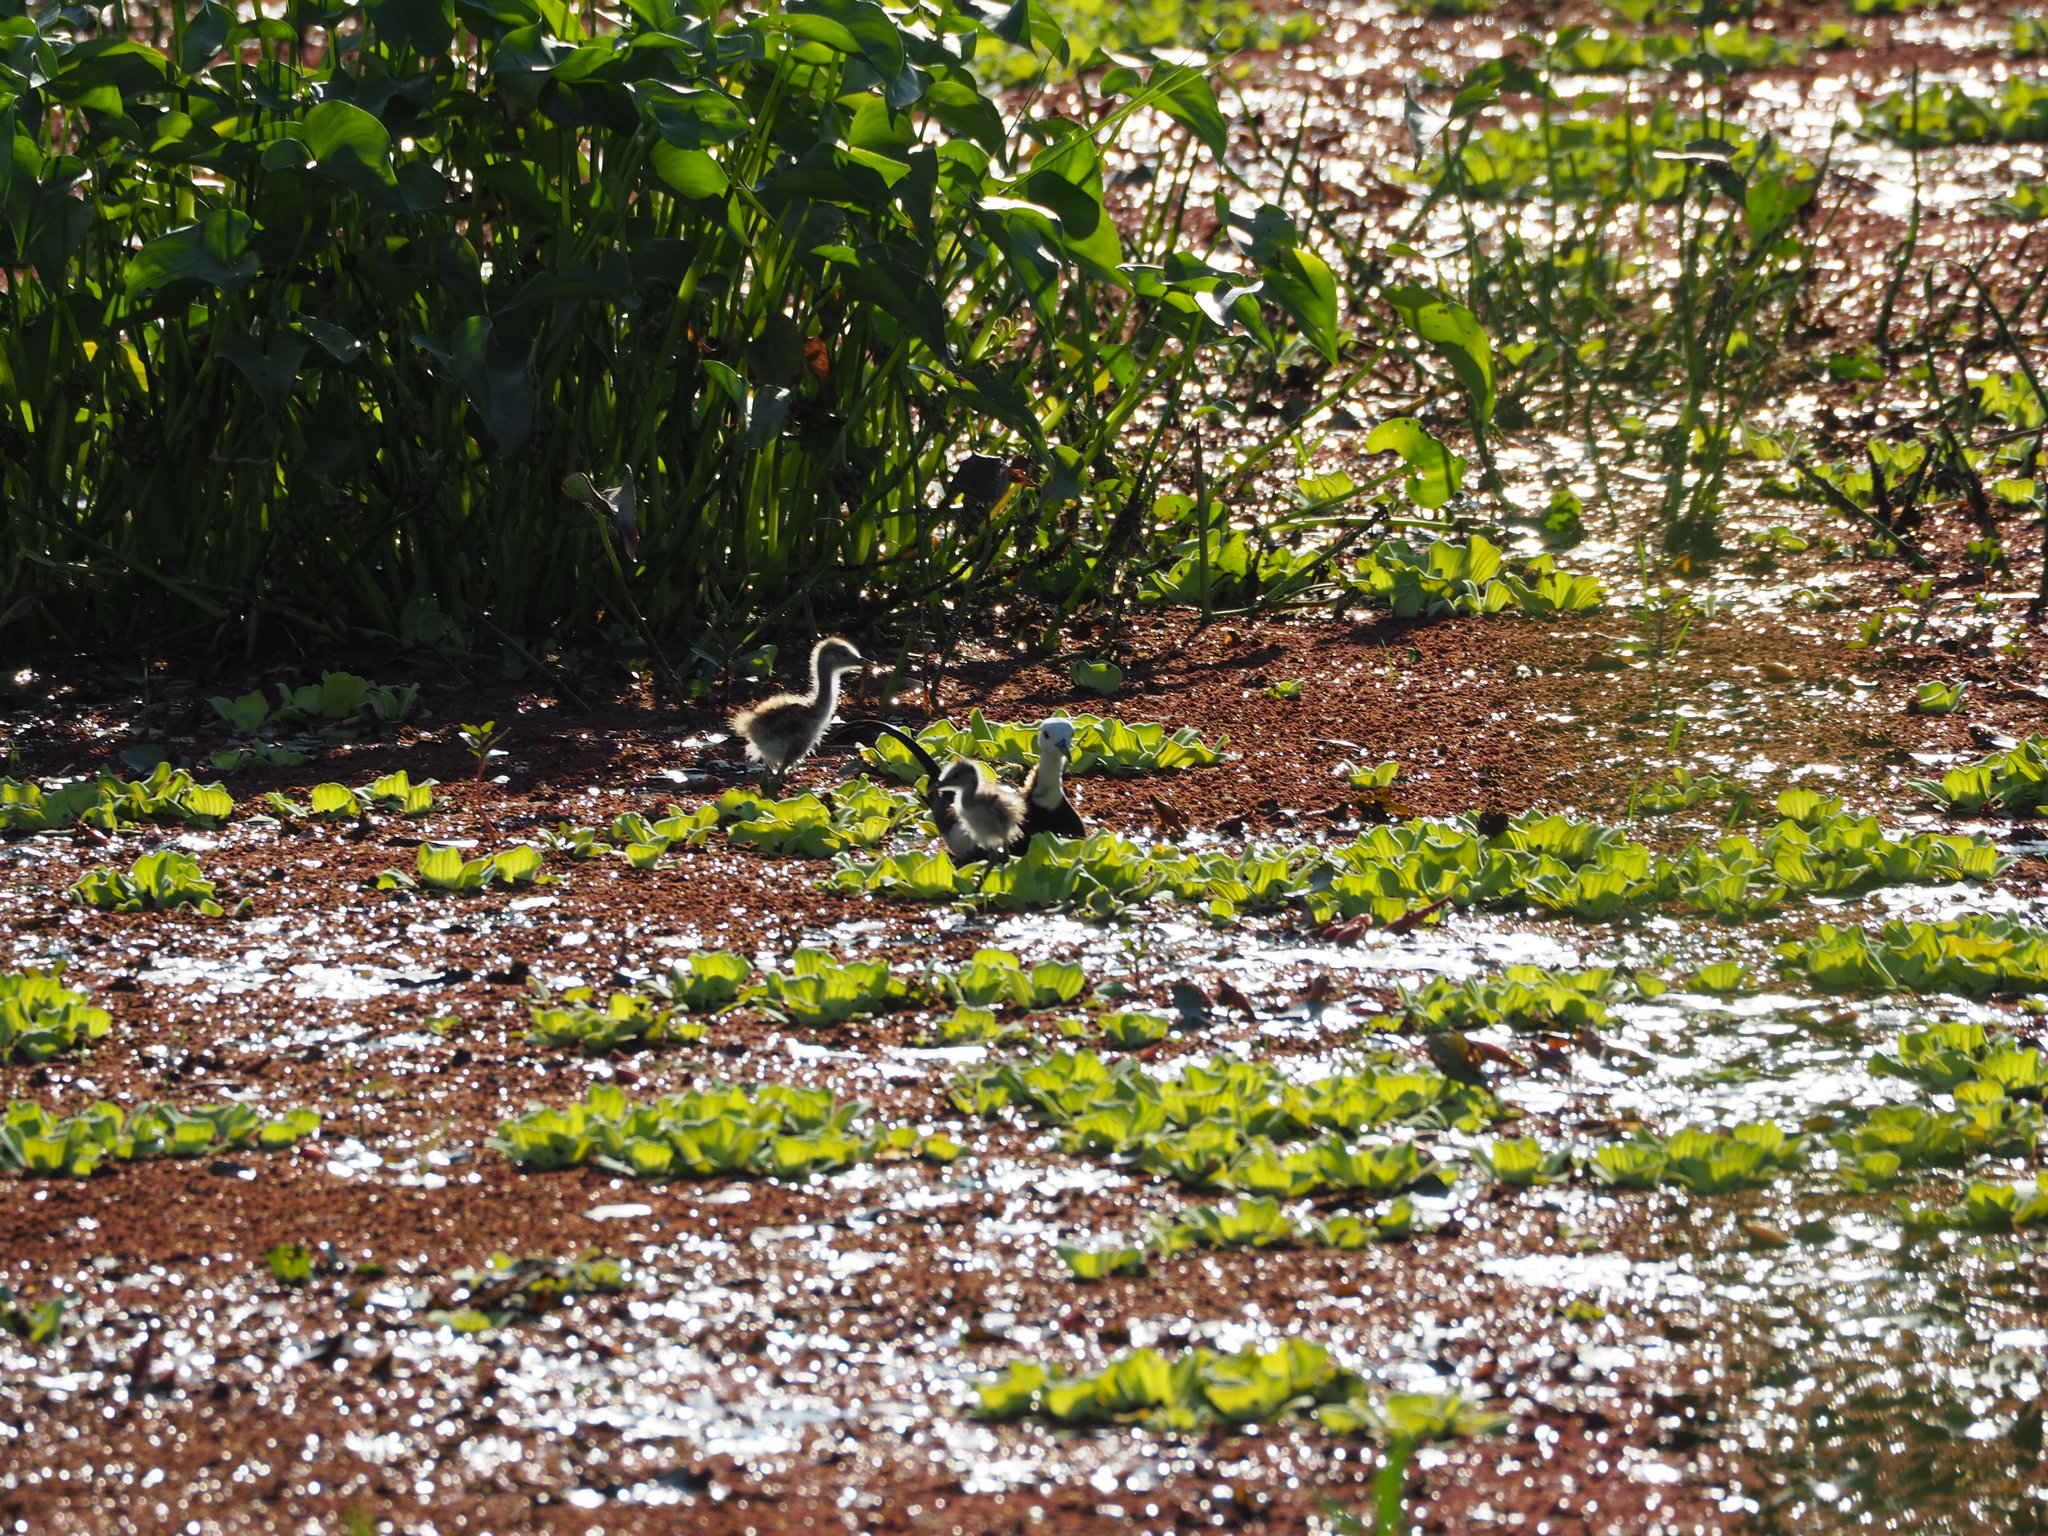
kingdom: Animalia
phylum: Chordata
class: Aves
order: Charadriiformes
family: Jacanidae
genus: Hydrophasianus
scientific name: Hydrophasianus chirurgus
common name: Pheasant-tailed jacana
